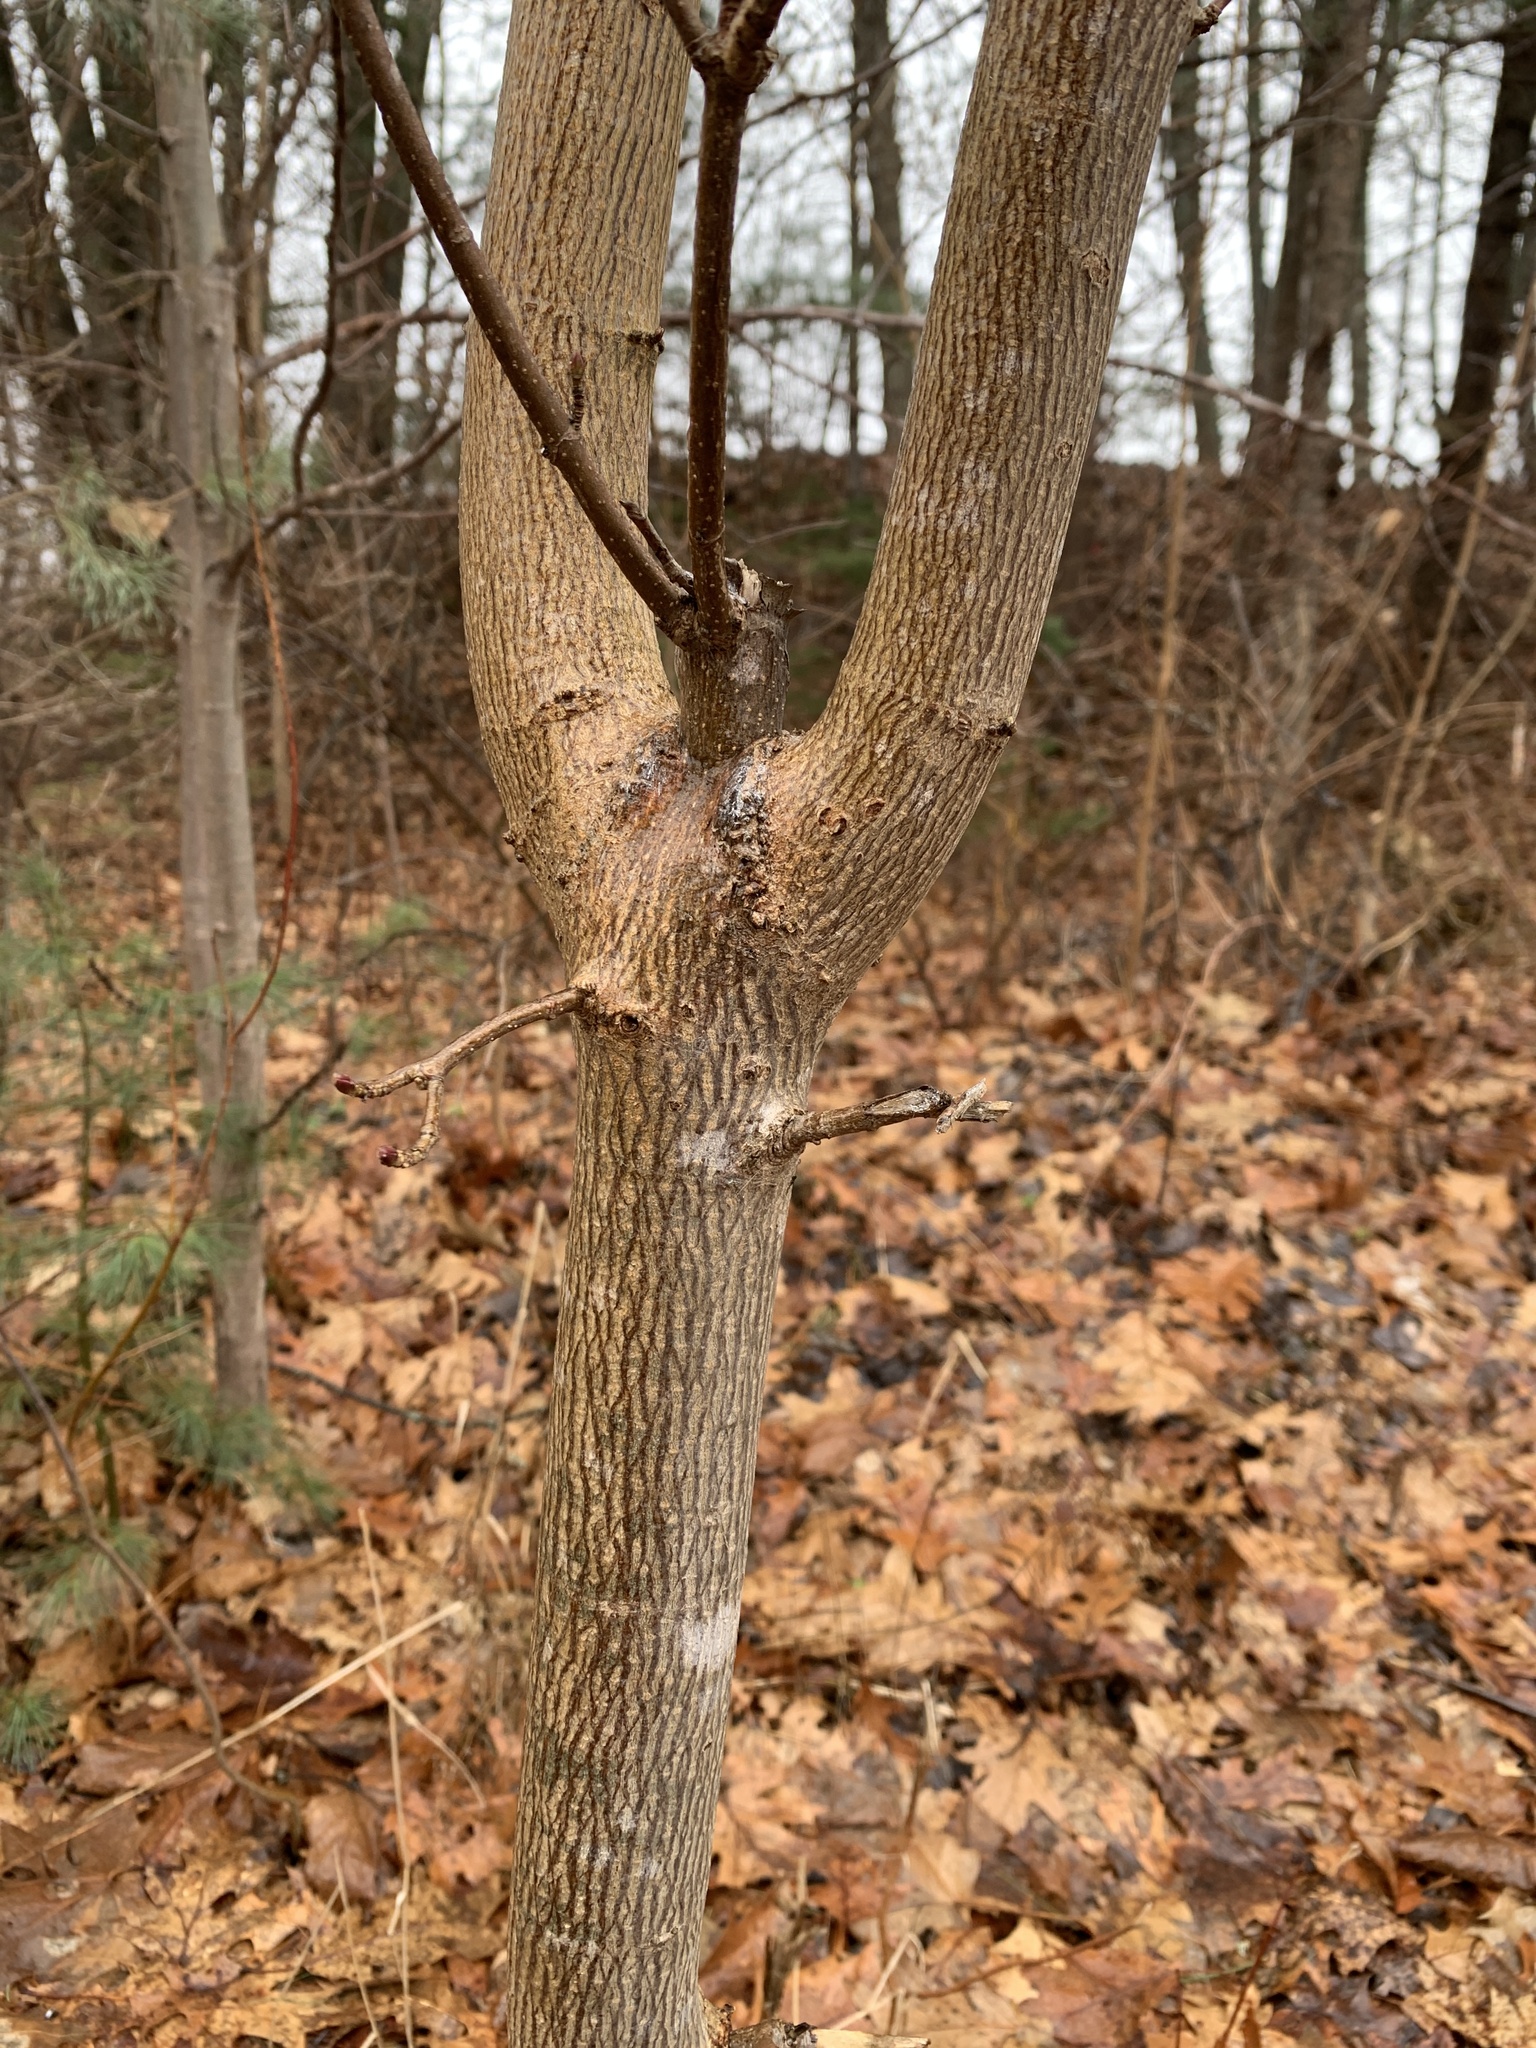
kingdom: Plantae
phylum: Tracheophyta
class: Magnoliopsida
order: Sapindales
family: Sapindaceae
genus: Acer
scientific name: Acer platanoides
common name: Norway maple
